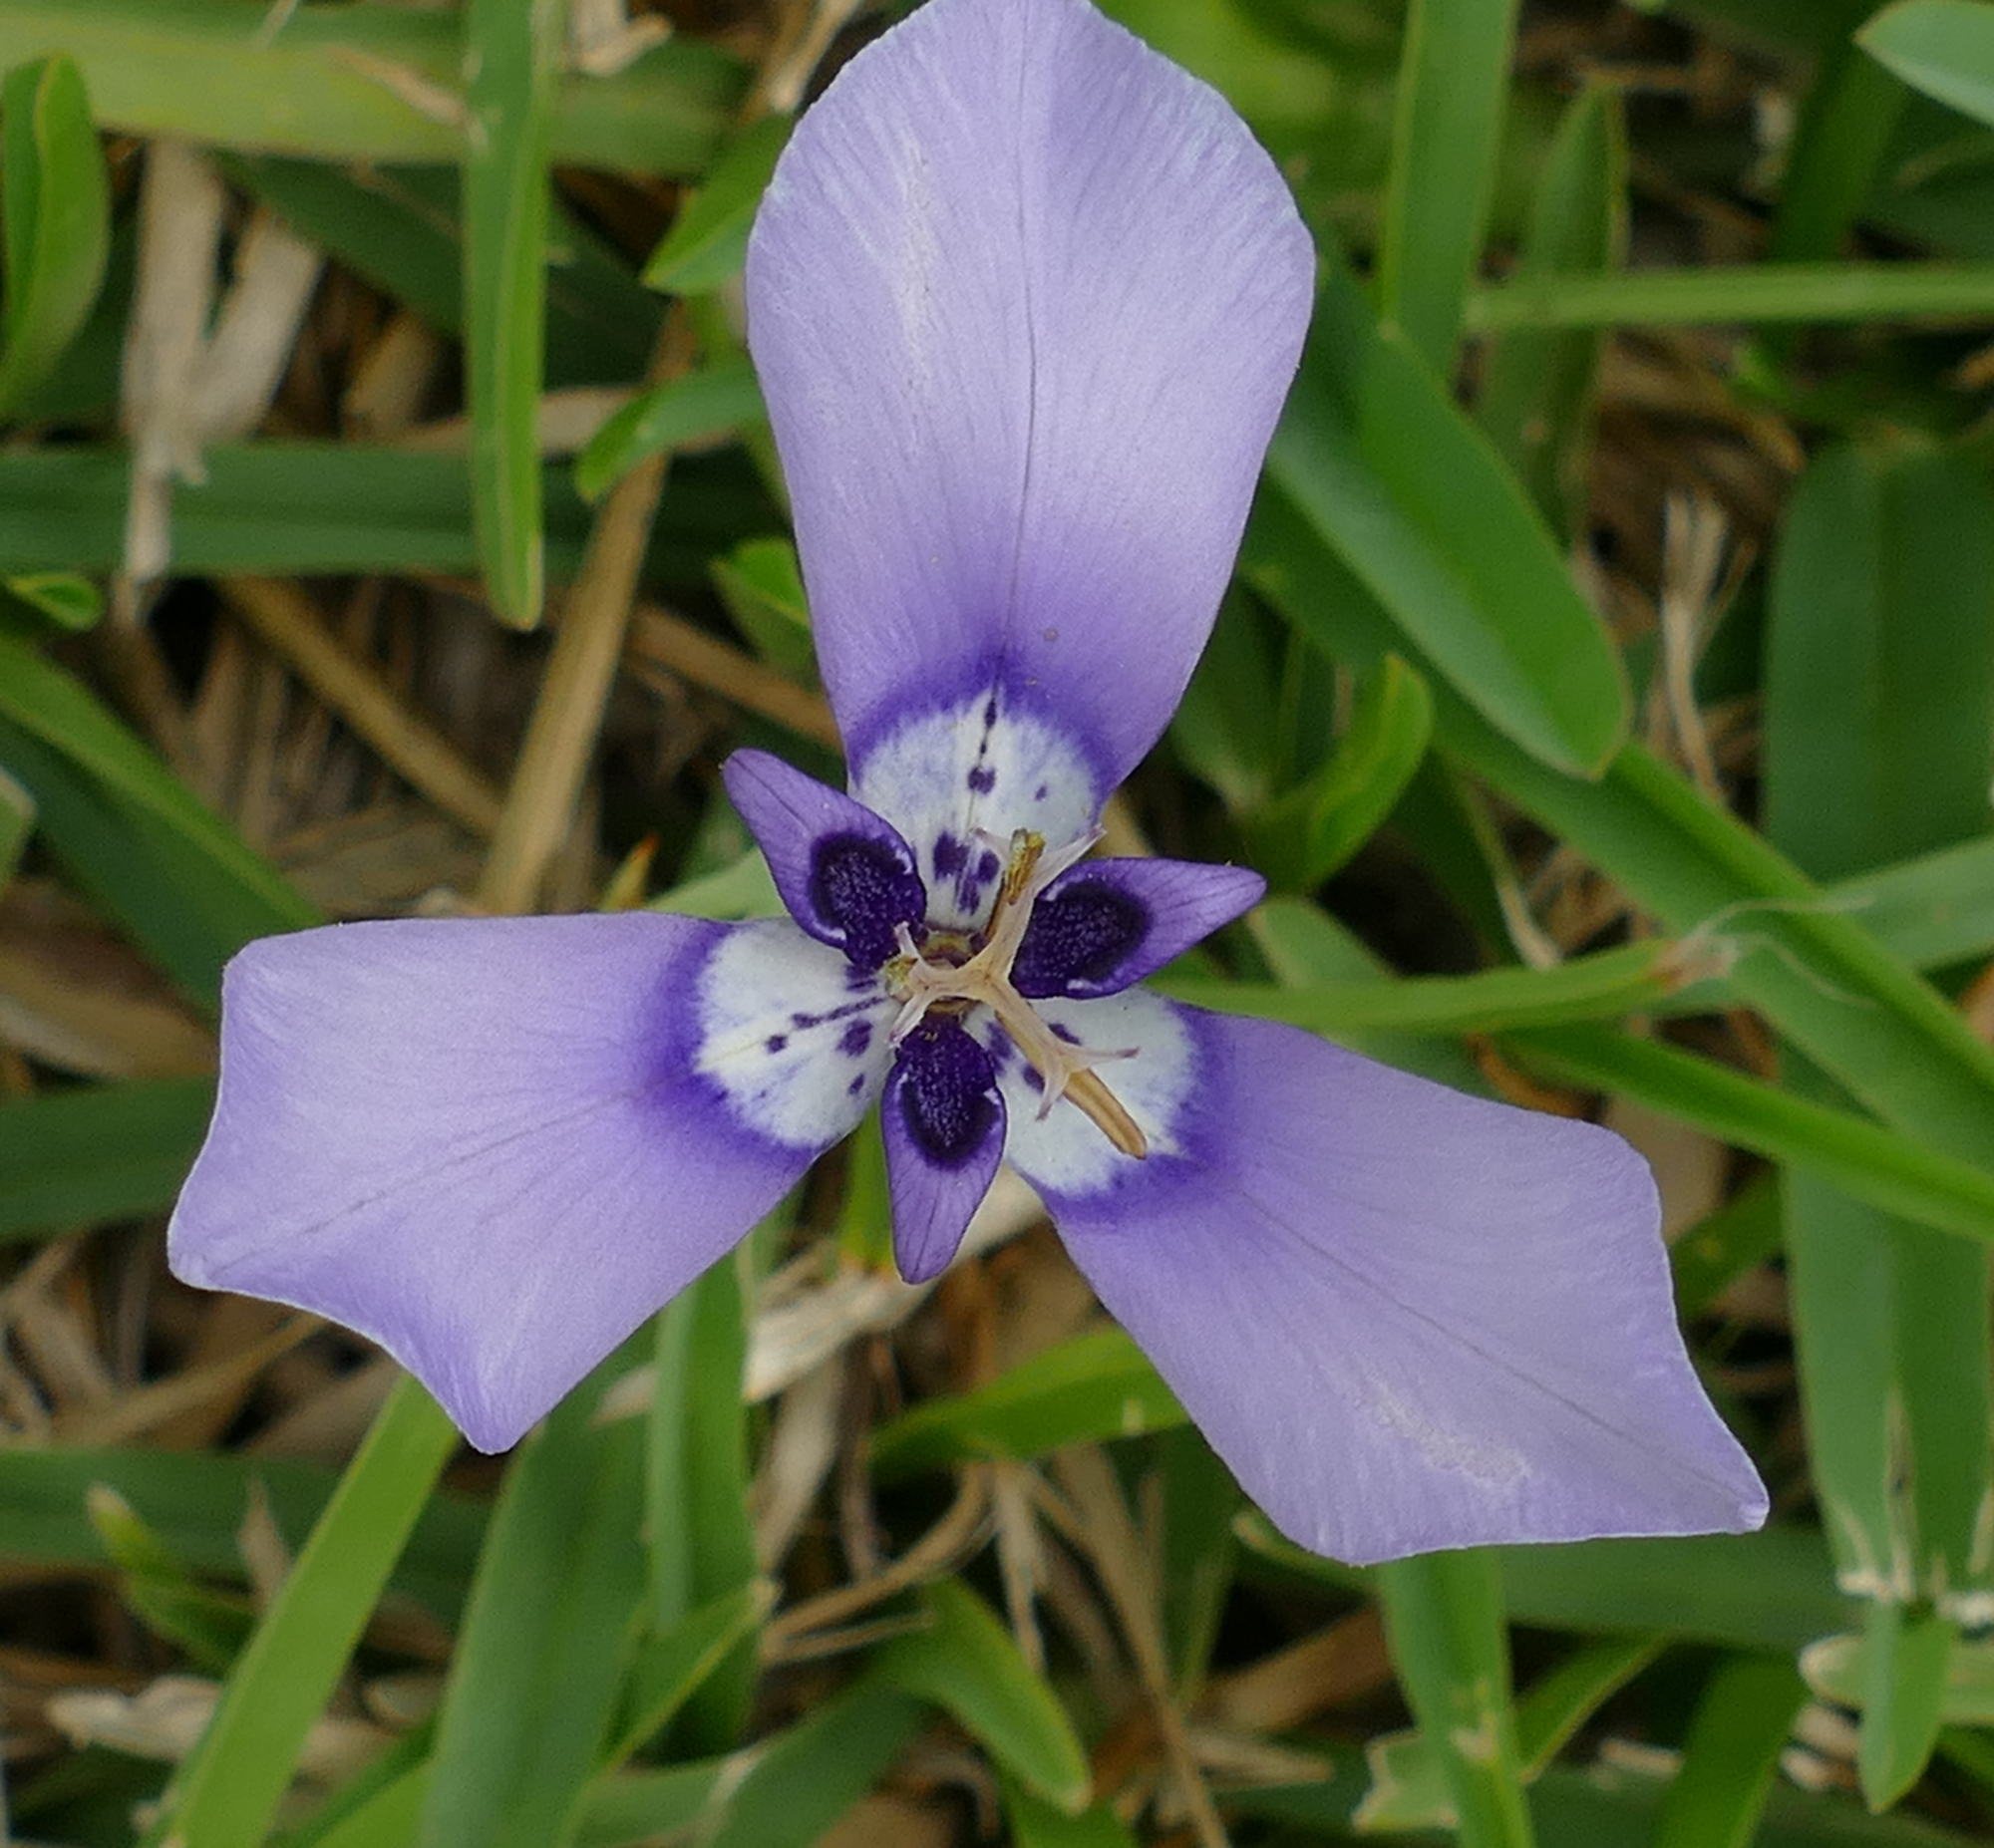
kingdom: Plantae
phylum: Tracheophyta
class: Liliopsida
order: Asparagales
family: Iridaceae
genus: Herbertia
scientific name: Herbertia lahue
